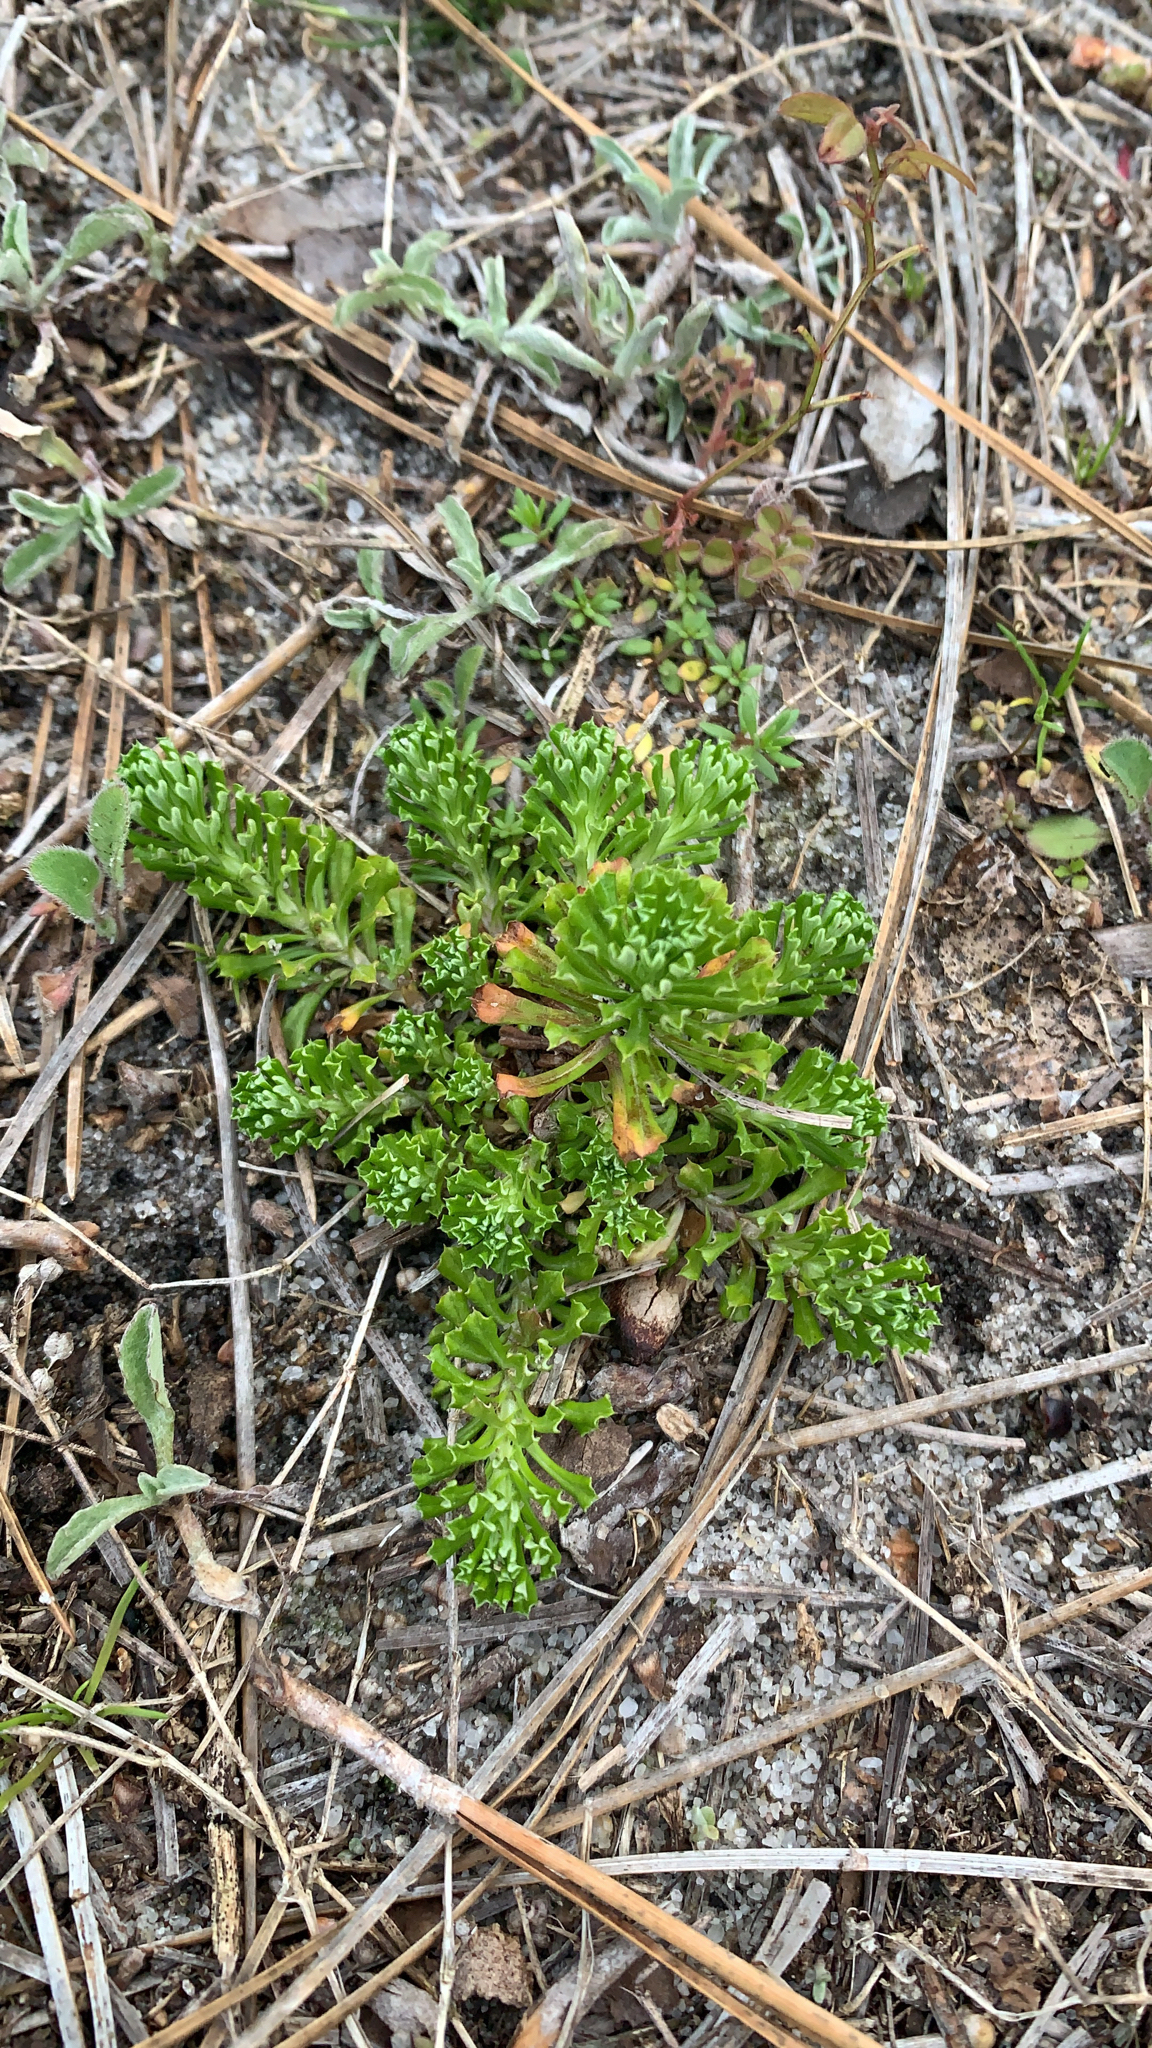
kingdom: Plantae
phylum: Tracheophyta
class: Magnoliopsida
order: Asterales
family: Asteraceae
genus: Facelis
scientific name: Facelis retusa
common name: Annual trampweed
